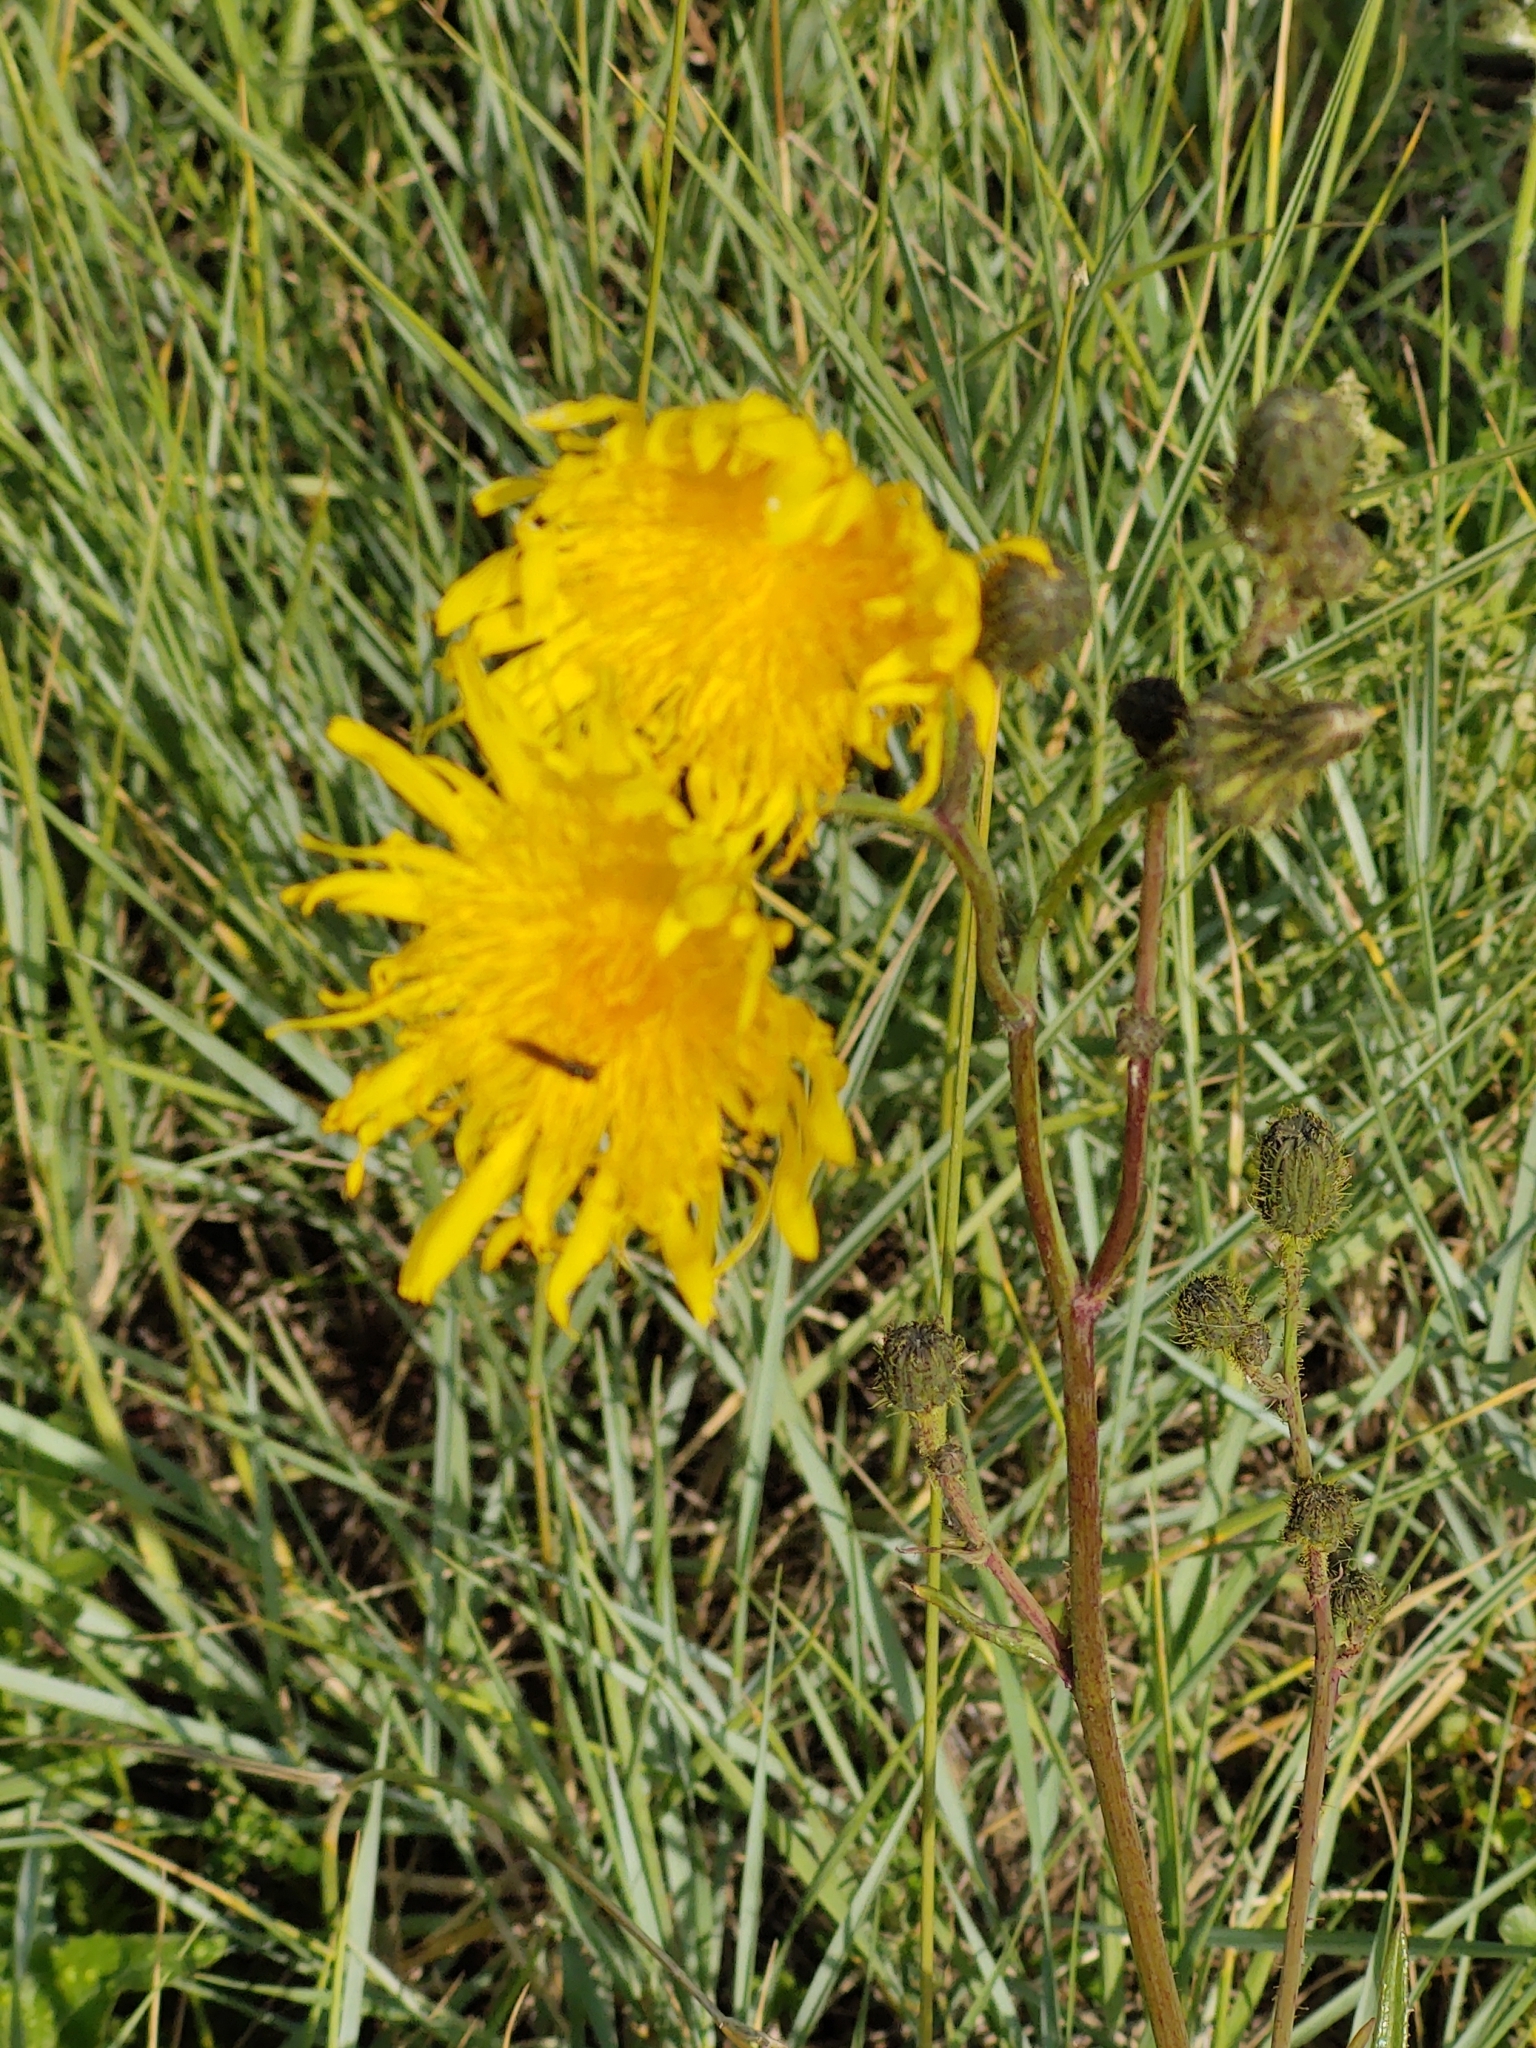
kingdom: Plantae
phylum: Tracheophyta
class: Magnoliopsida
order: Asterales
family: Asteraceae
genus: Sonchus
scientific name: Sonchus arvensis
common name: Perennial sow-thistle
